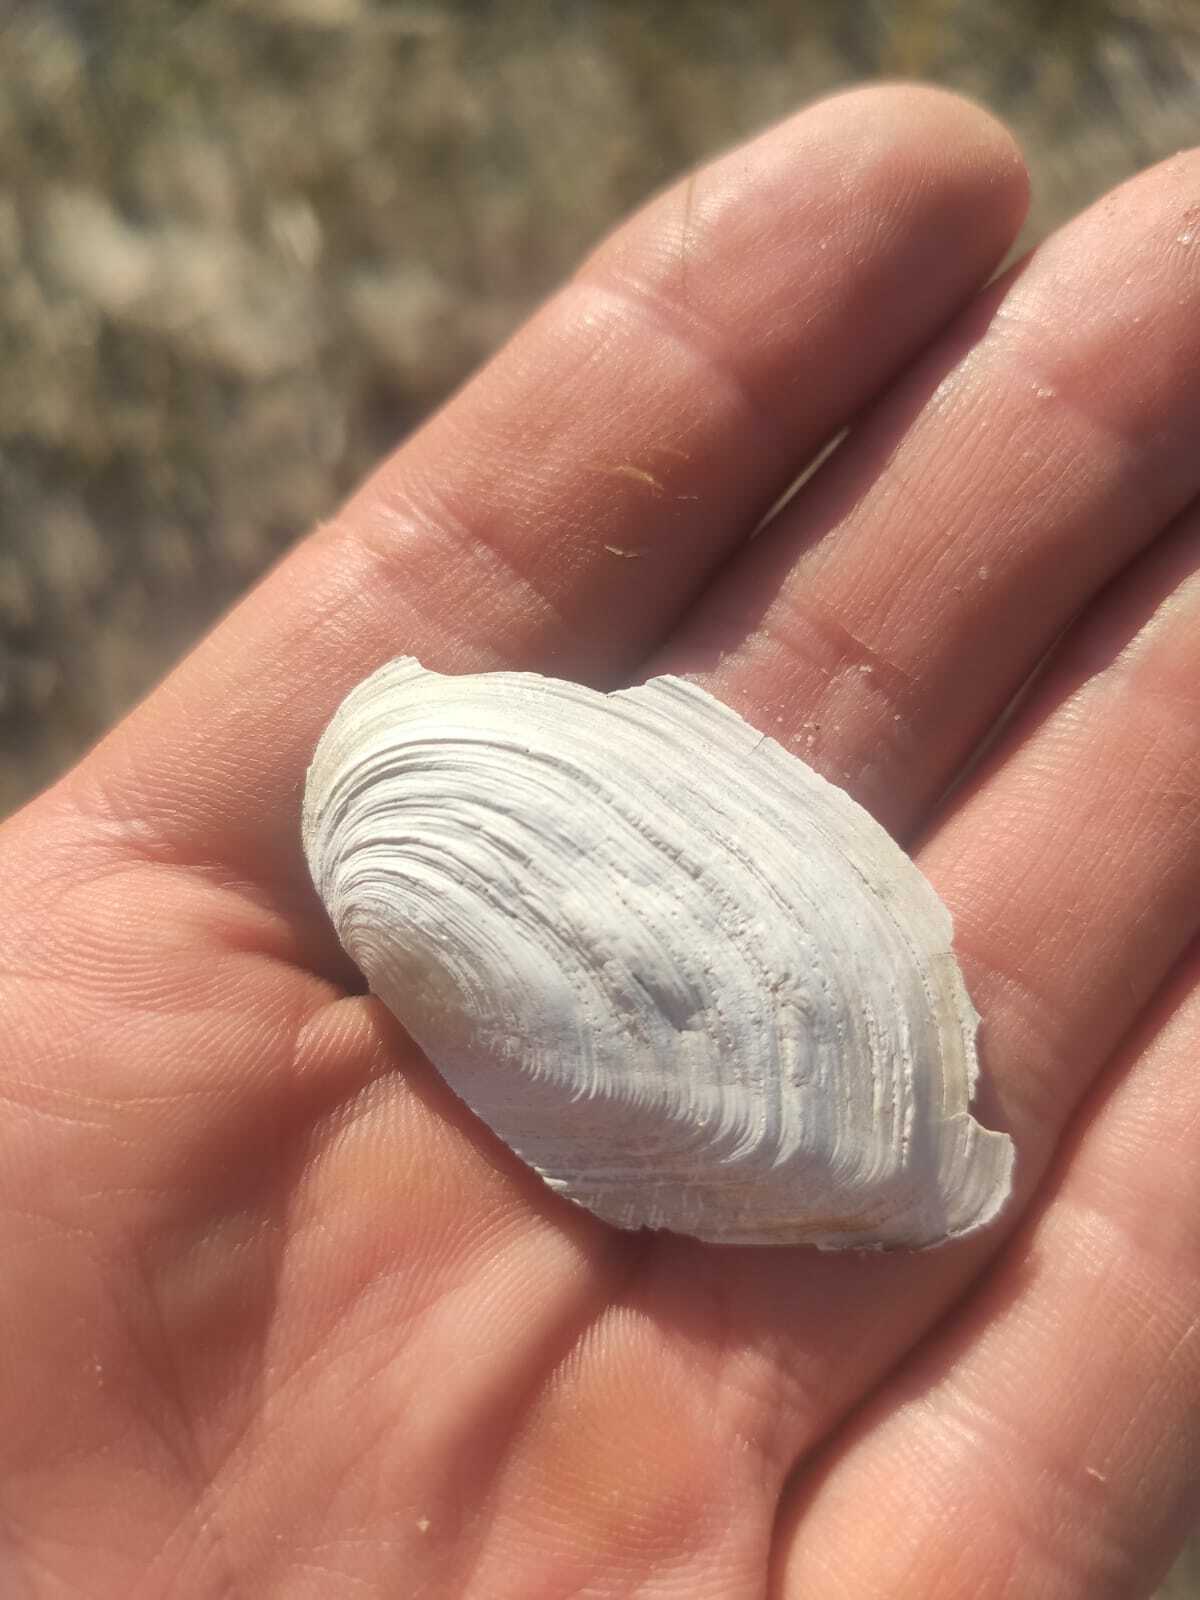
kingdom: Animalia
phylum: Mollusca
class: Bivalvia
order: Unionida
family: Unionidae
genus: Anodonta
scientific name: Anodonta cygnea
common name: Swan mussel
